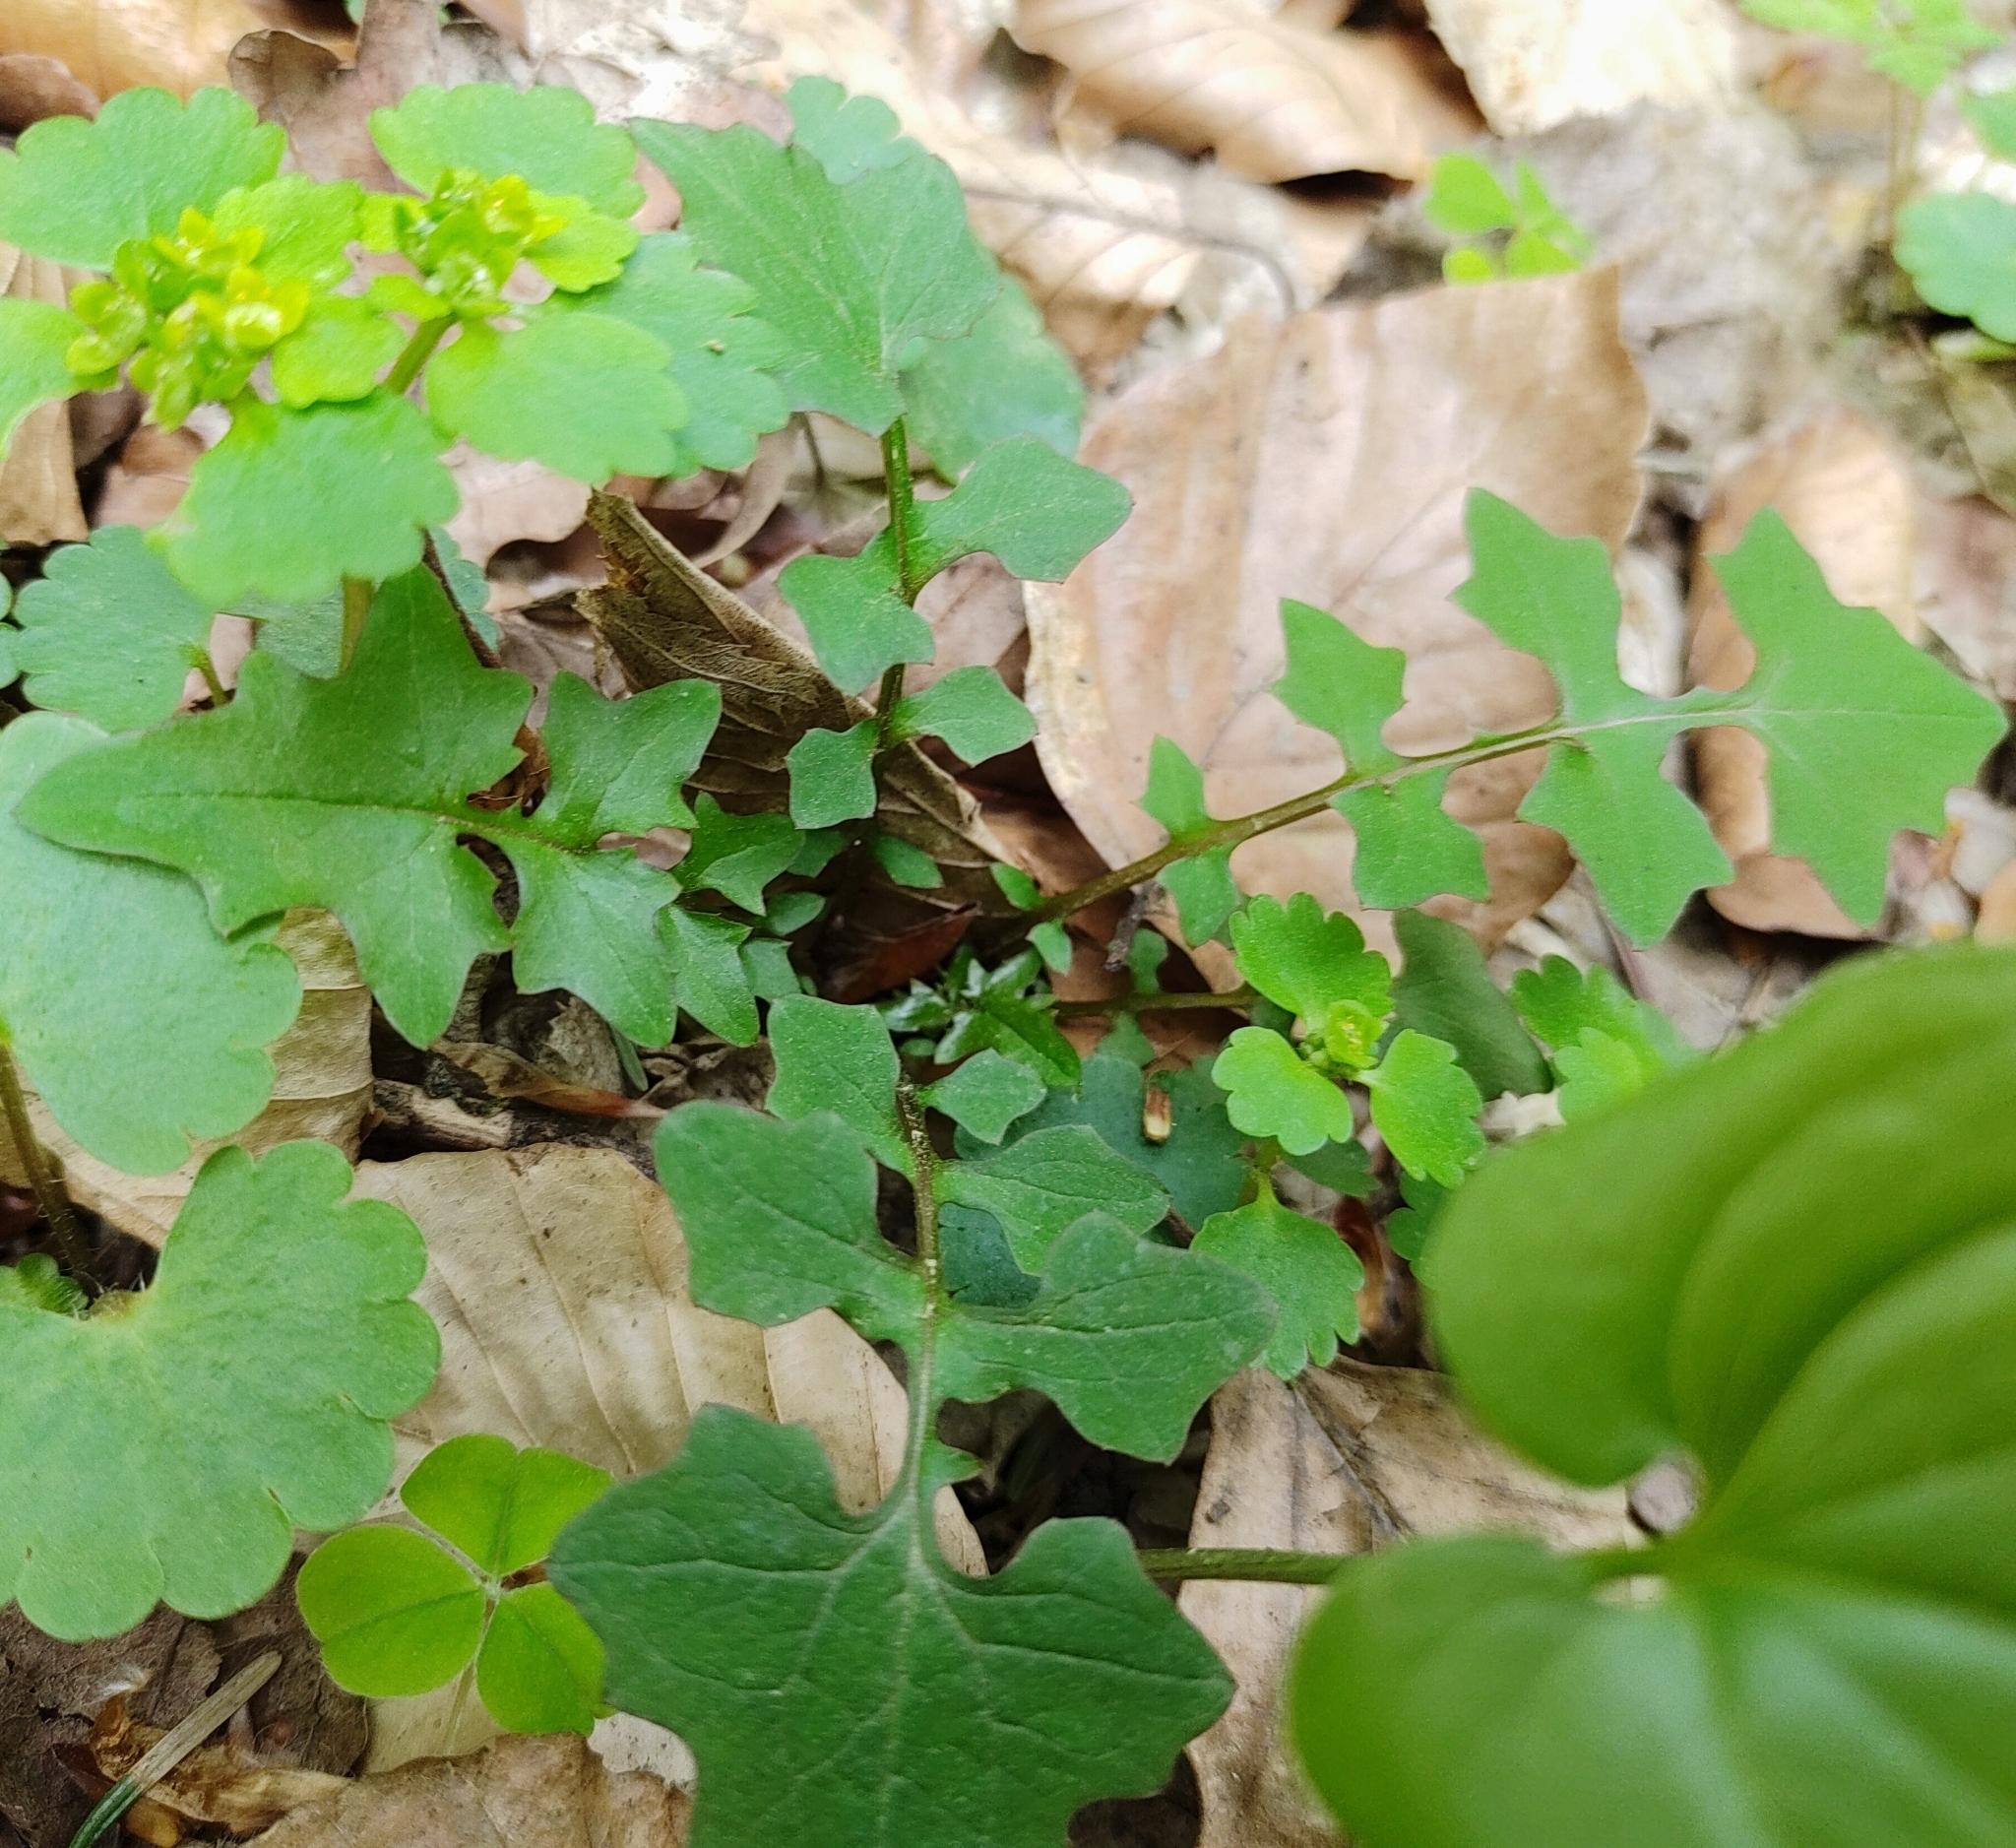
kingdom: Plantae
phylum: Tracheophyta
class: Magnoliopsida
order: Asterales
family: Asteraceae
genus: Mycelis
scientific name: Mycelis muralis
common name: Wall lettuce
